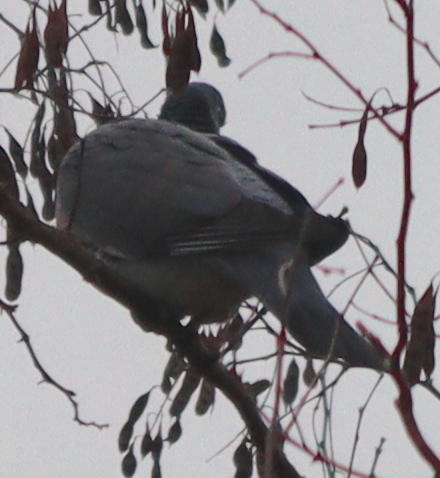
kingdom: Animalia
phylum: Chordata
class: Aves
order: Columbiformes
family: Columbidae
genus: Columba
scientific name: Columba palumbus
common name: Common wood pigeon
